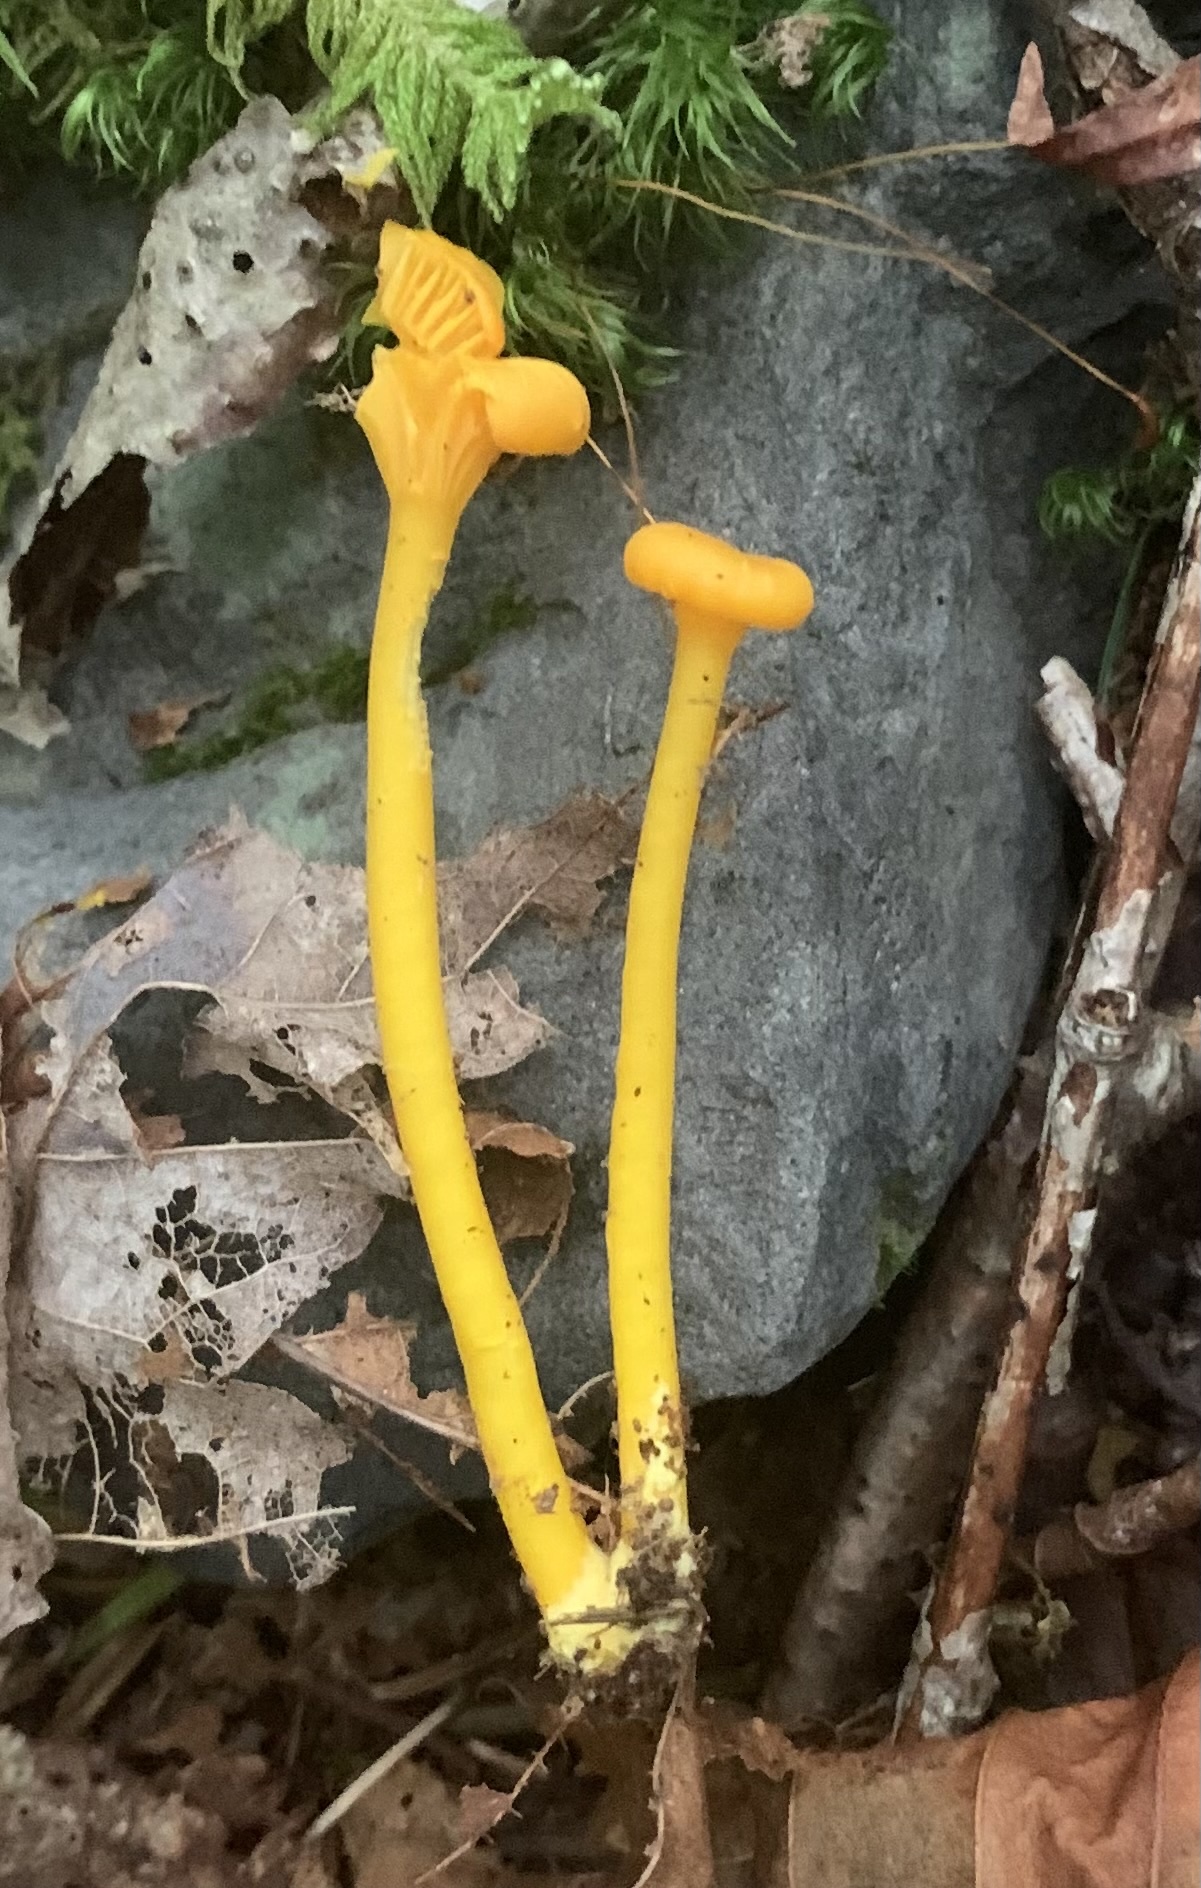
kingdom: Fungi
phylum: Basidiomycota
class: Agaricomycetes
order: Agaricales
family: Hygrophoraceae
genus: Gloioxanthomyces
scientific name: Gloioxanthomyces nitidus
